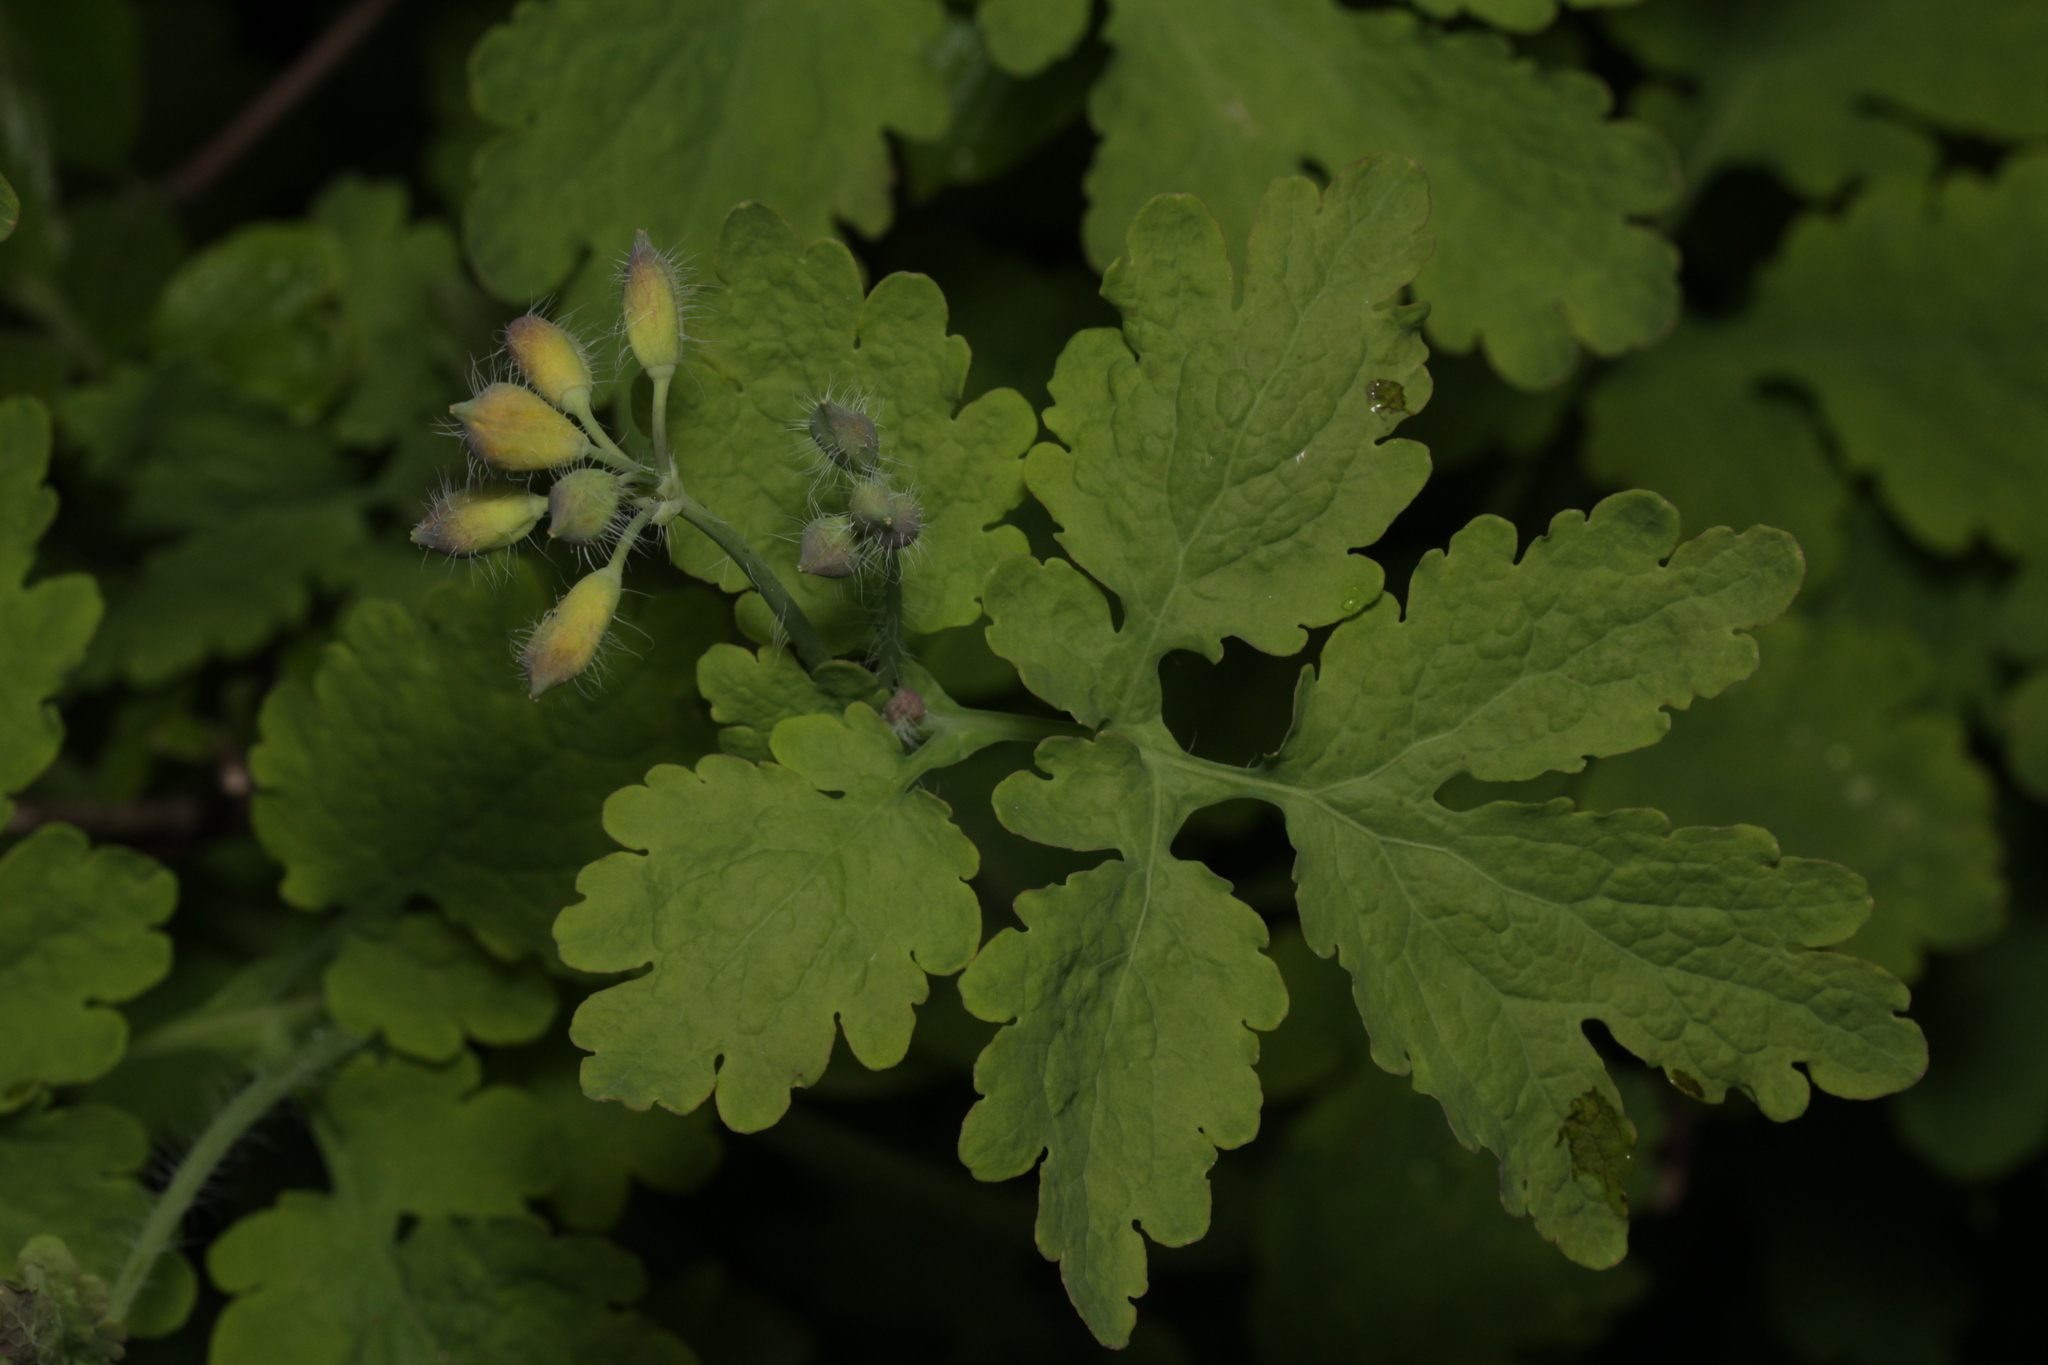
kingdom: Plantae
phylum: Tracheophyta
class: Magnoliopsida
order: Ranunculales
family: Papaveraceae
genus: Chelidonium
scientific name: Chelidonium majus
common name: Greater celandine
